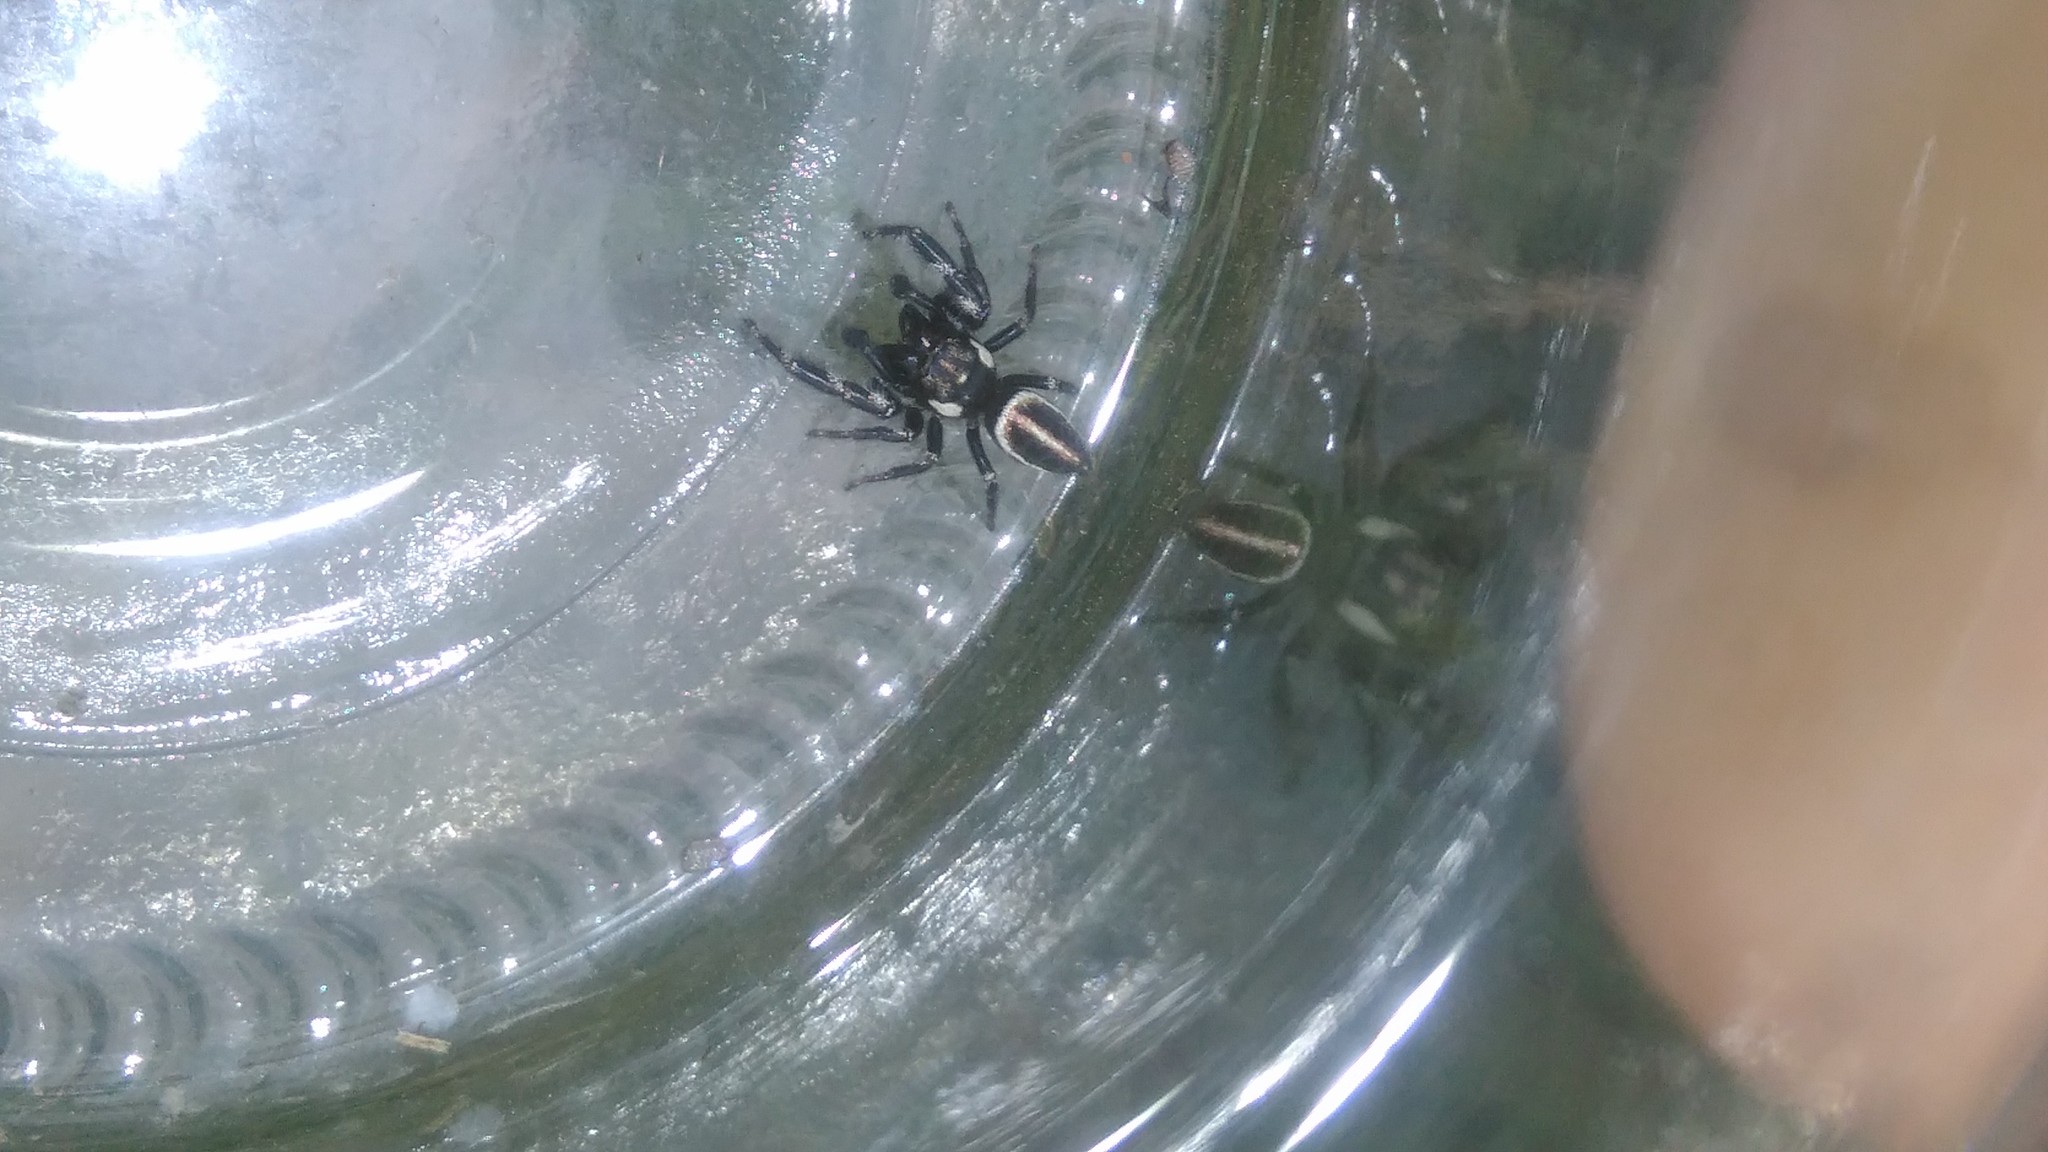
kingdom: Animalia
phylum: Arthropoda
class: Arachnida
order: Araneae
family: Salticidae
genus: Dendryphantes
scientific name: Dendryphantes mordax
